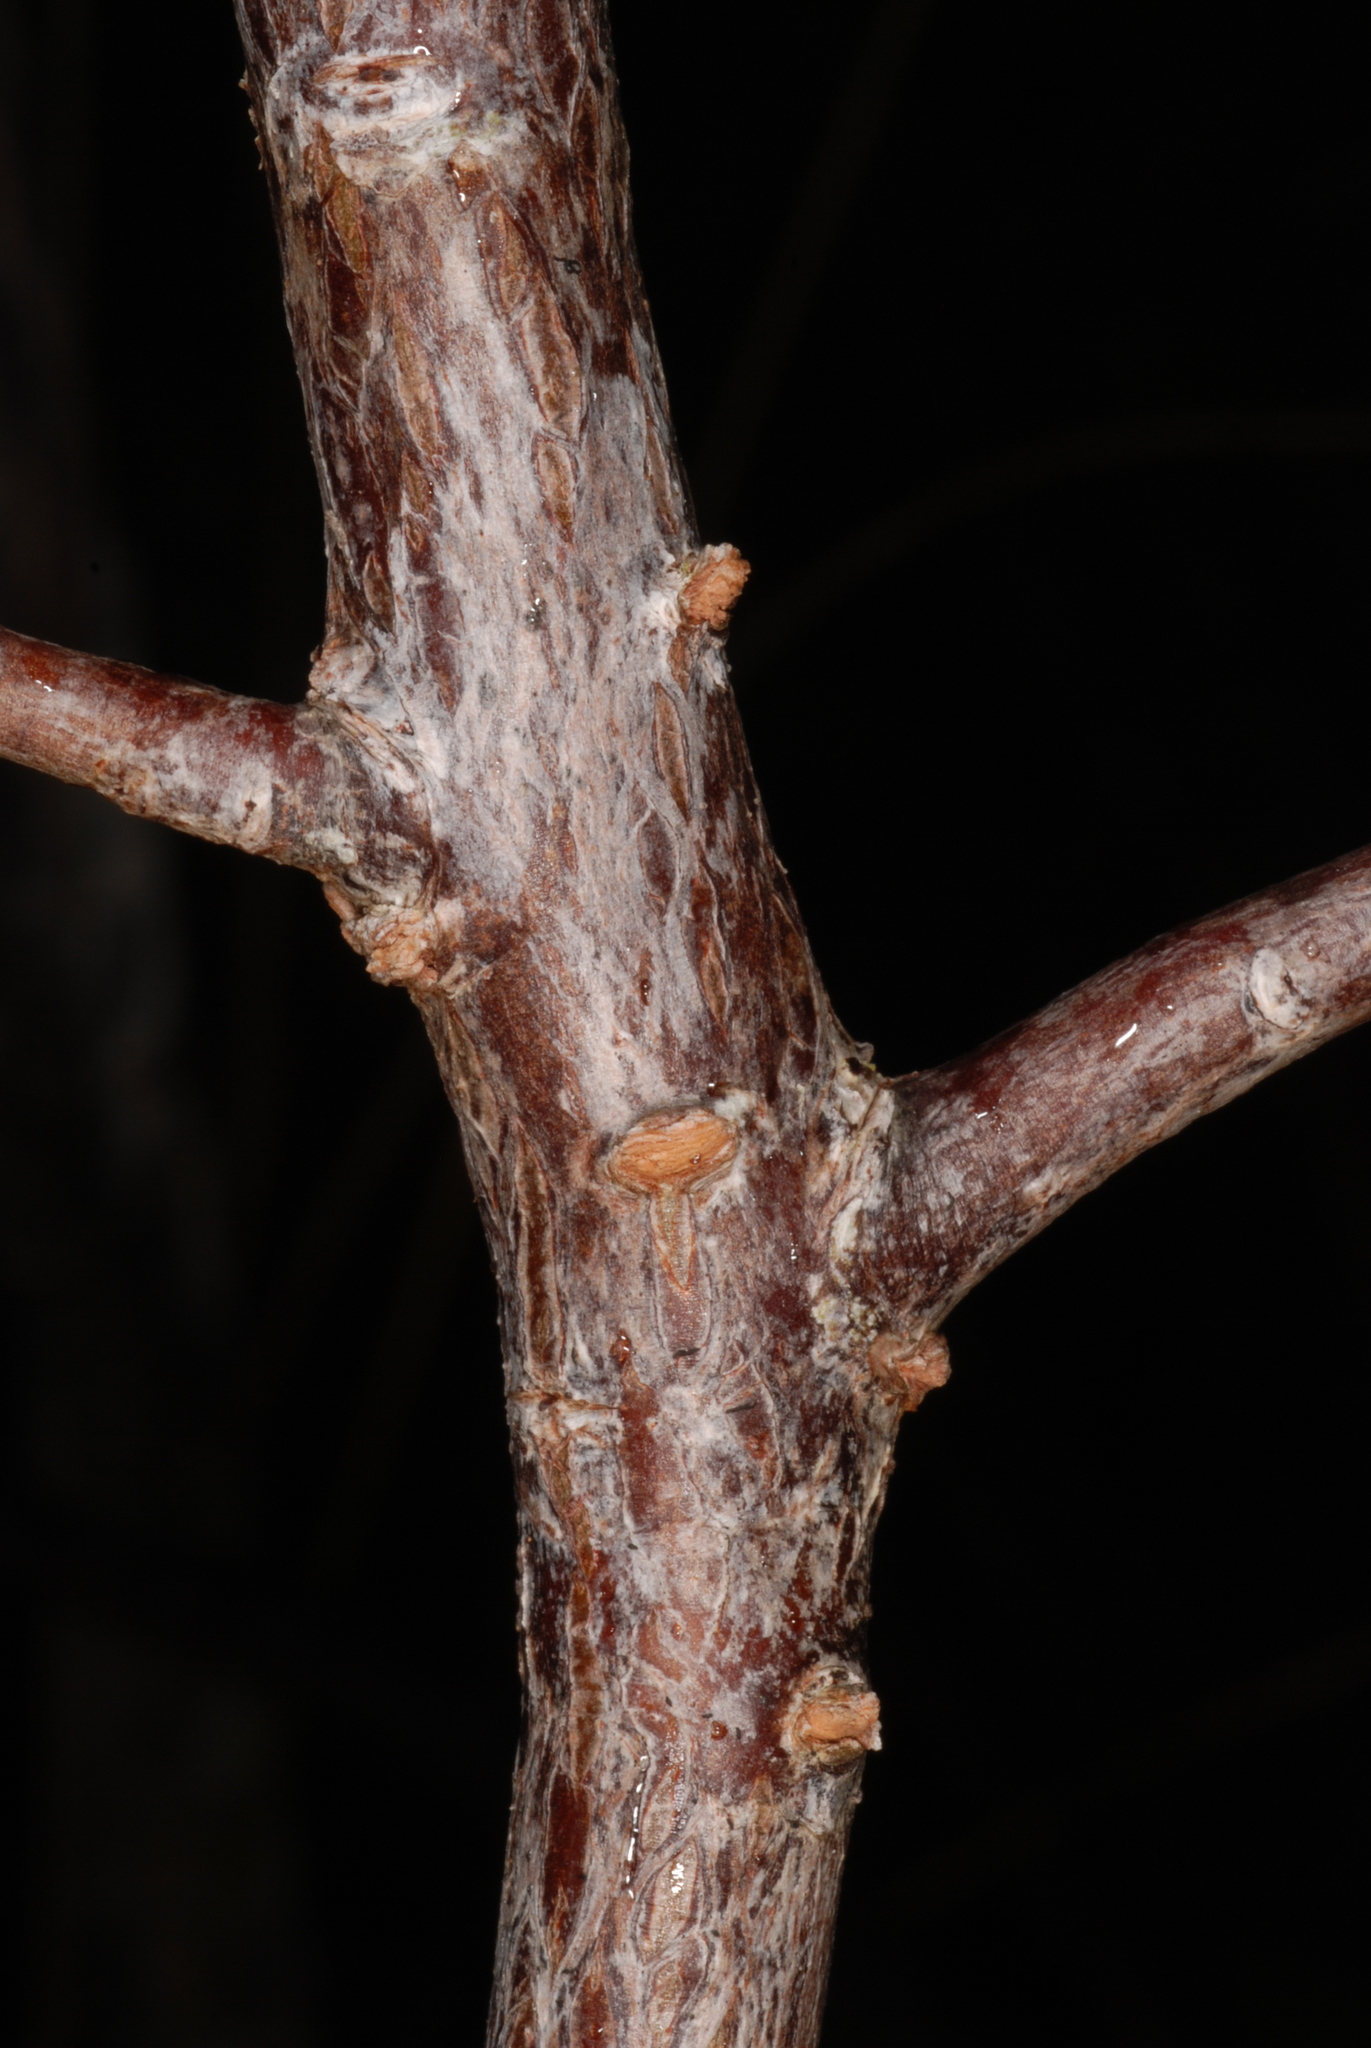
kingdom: Plantae
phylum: Tracheophyta
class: Magnoliopsida
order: Myrtales
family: Combretaceae
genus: Lumnitzera
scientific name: Lumnitzera racemosa
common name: White-flowered black mangrove
